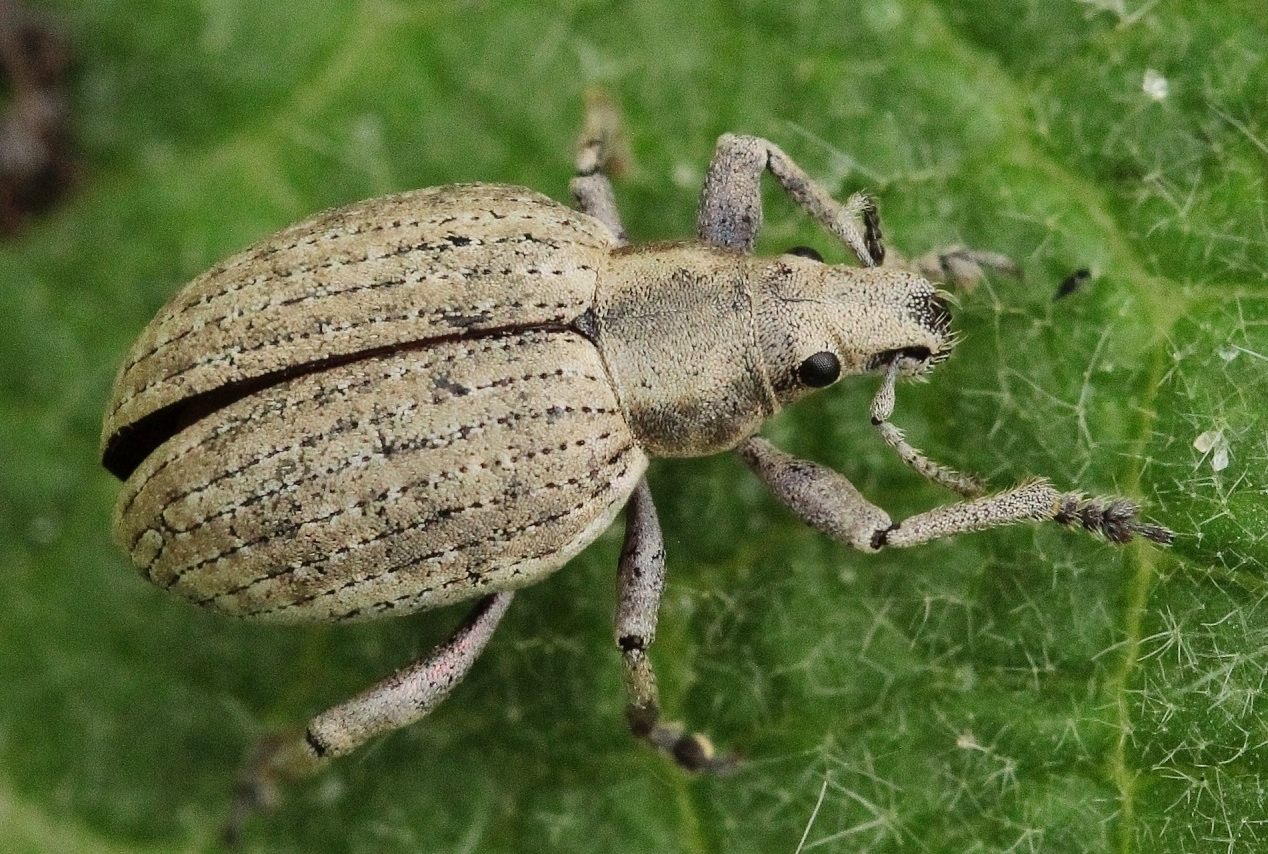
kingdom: Animalia
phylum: Arthropoda
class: Insecta
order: Coleoptera
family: Curculionidae
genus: Attactagenus
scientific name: Attactagenus albinus
